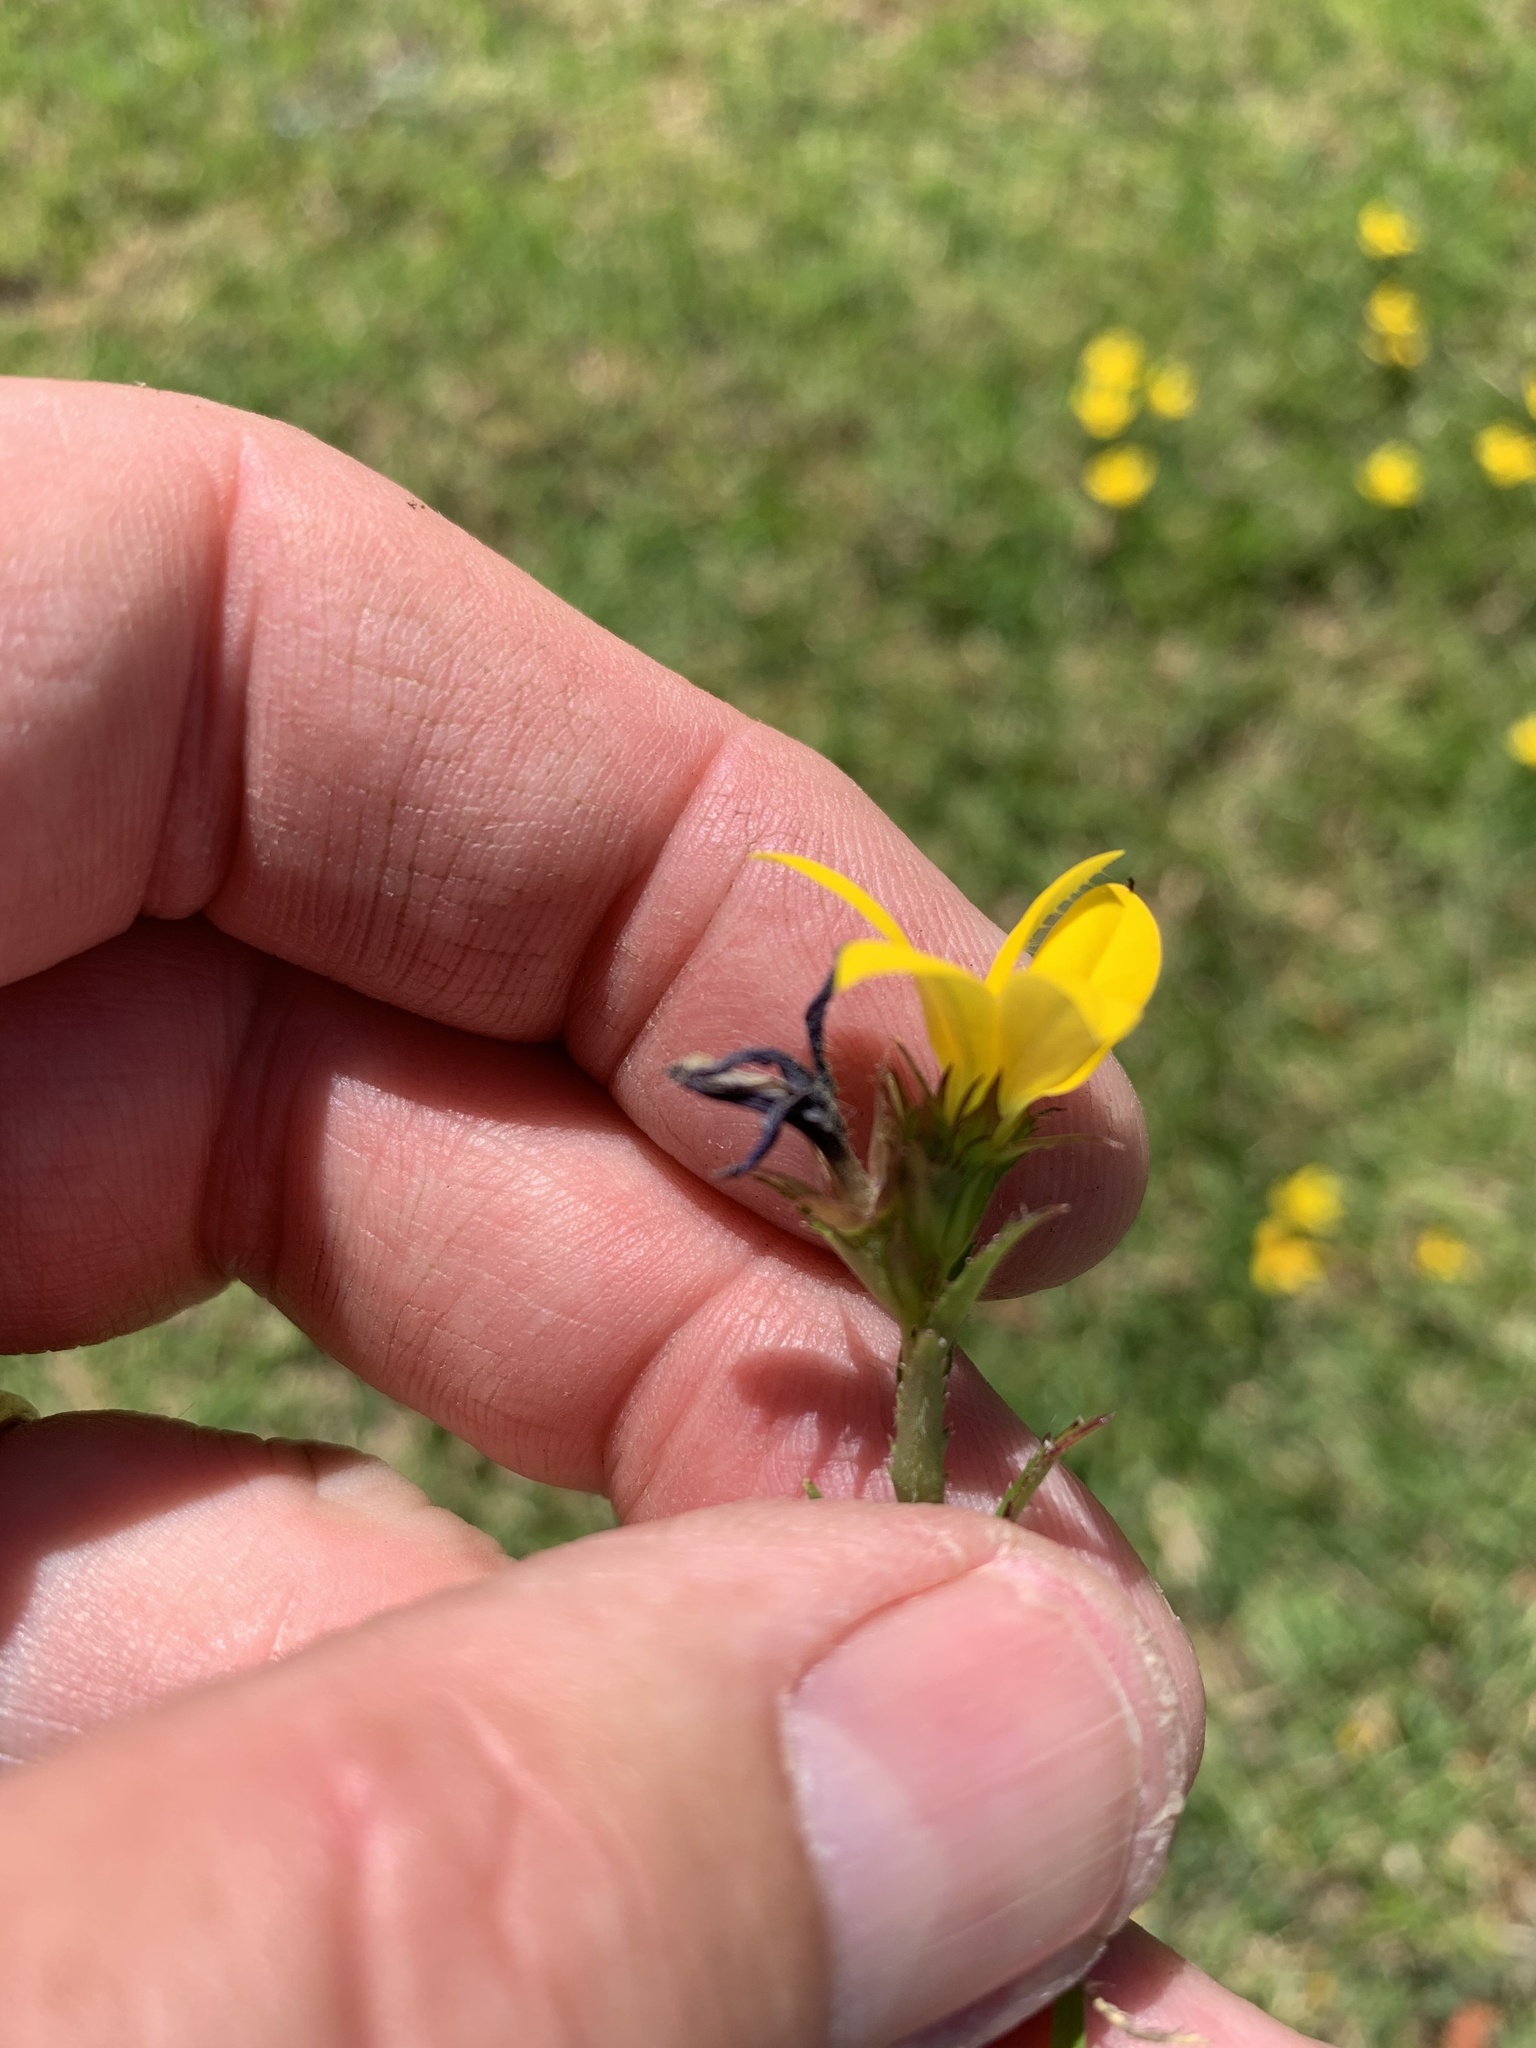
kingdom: Plantae
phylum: Tracheophyta
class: Magnoliopsida
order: Asterales
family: Campanulaceae
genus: Monopsis
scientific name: Monopsis lutea
